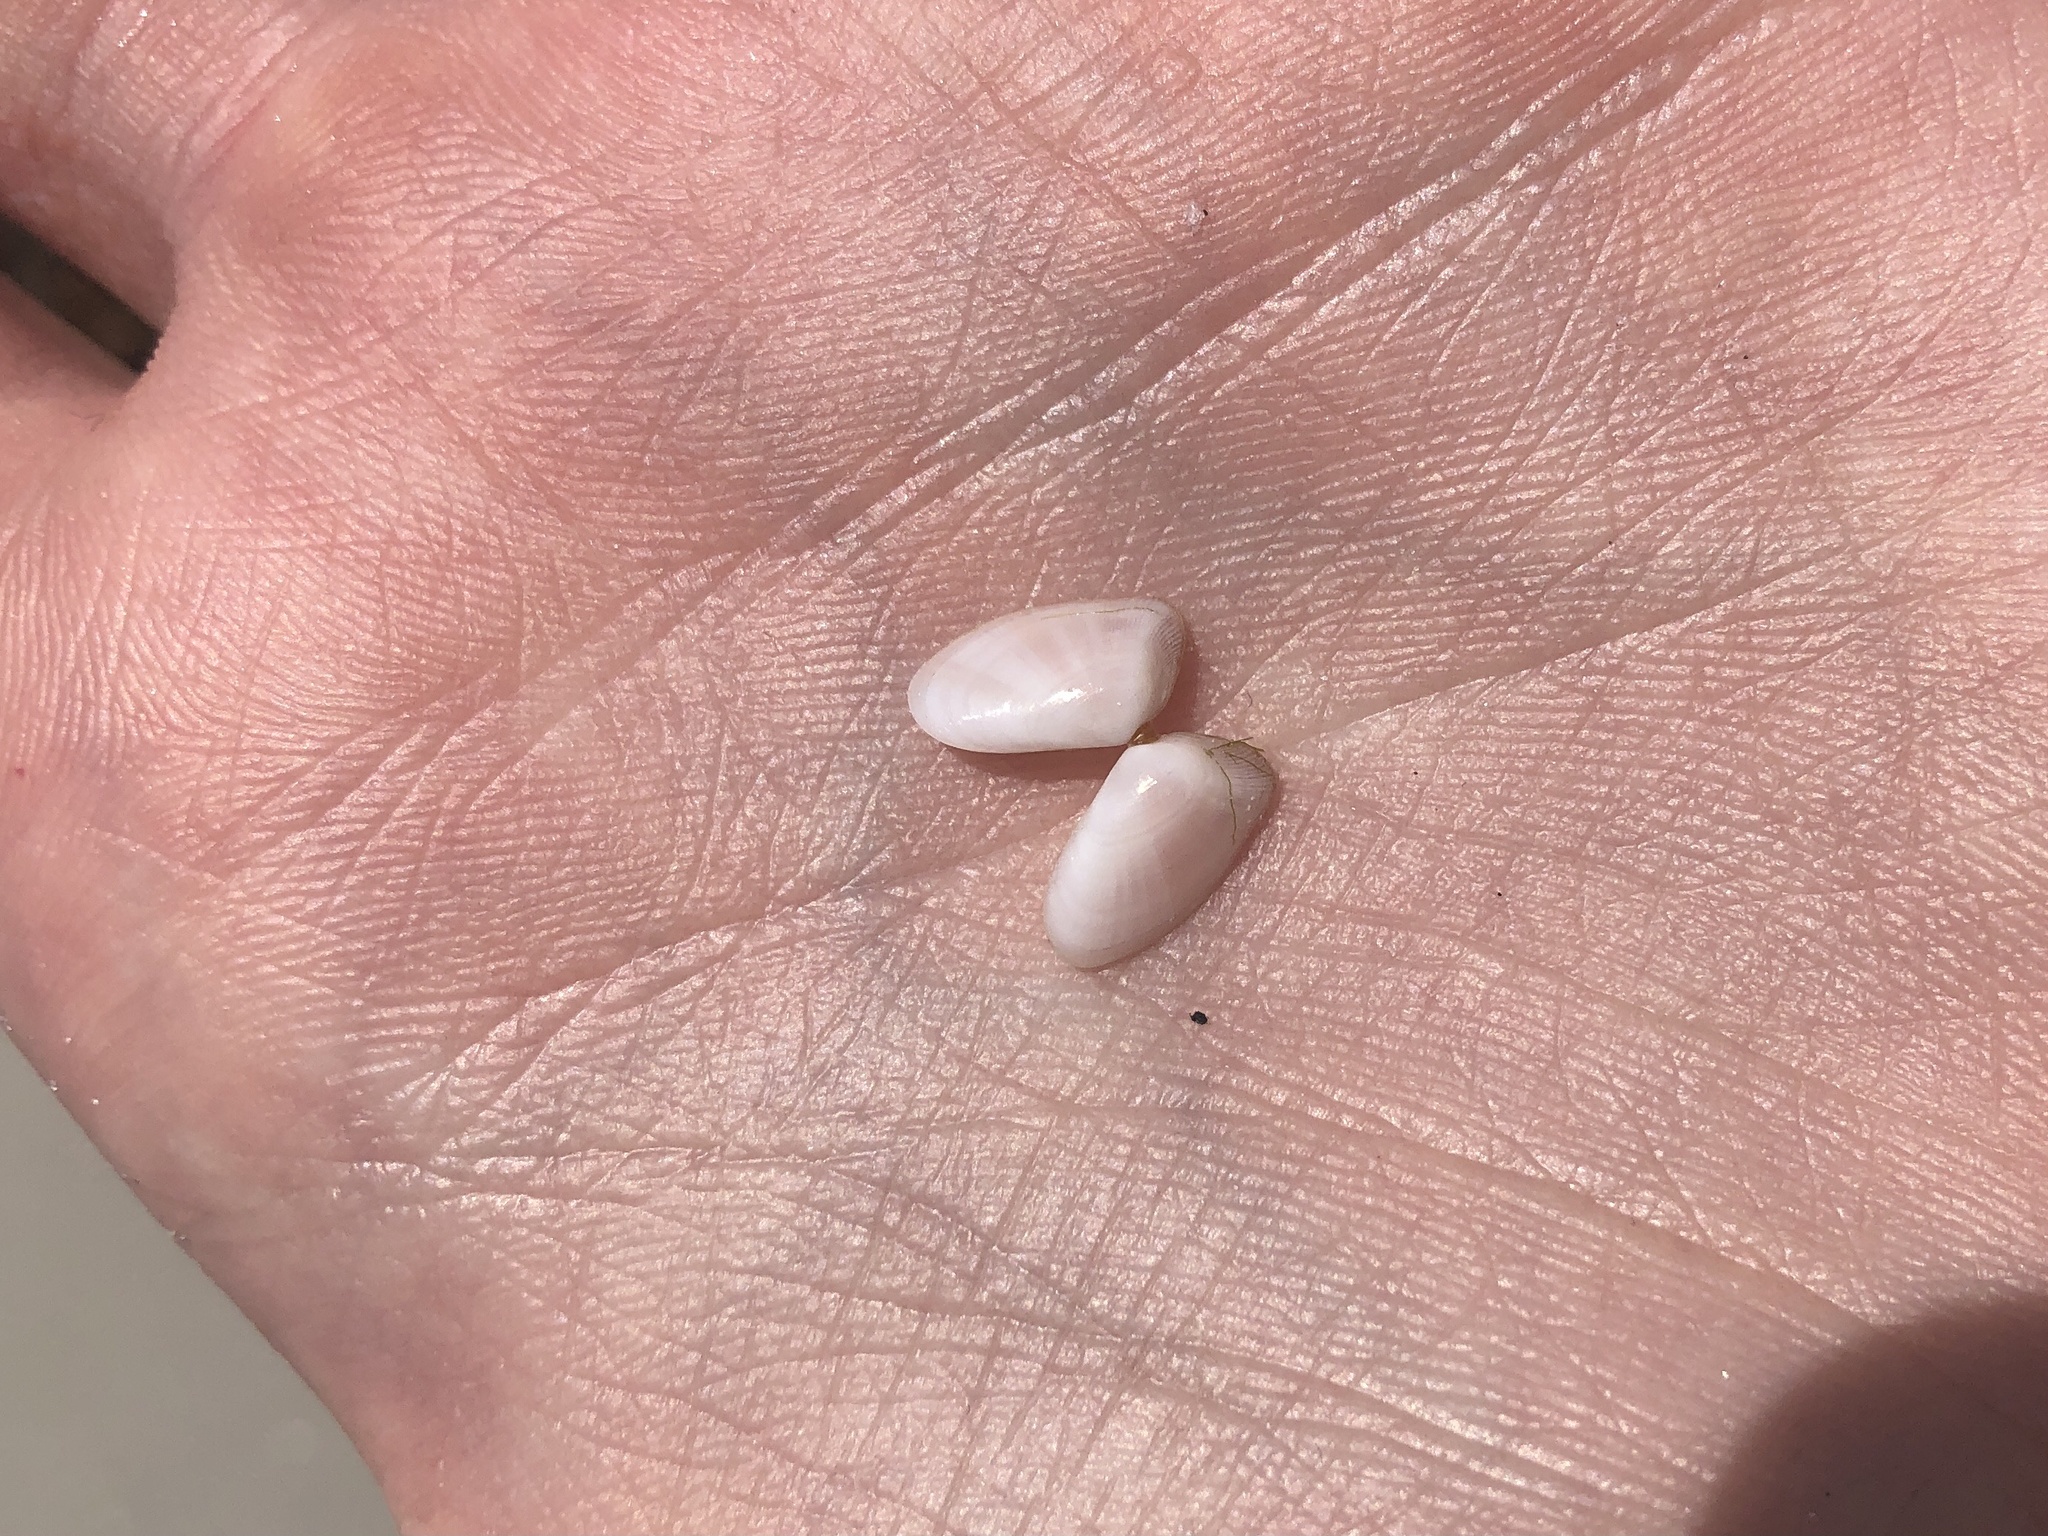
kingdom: Animalia
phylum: Mollusca
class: Bivalvia
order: Cardiida
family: Donacidae
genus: Donax
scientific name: Donax variabilis
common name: Butterfly shell
